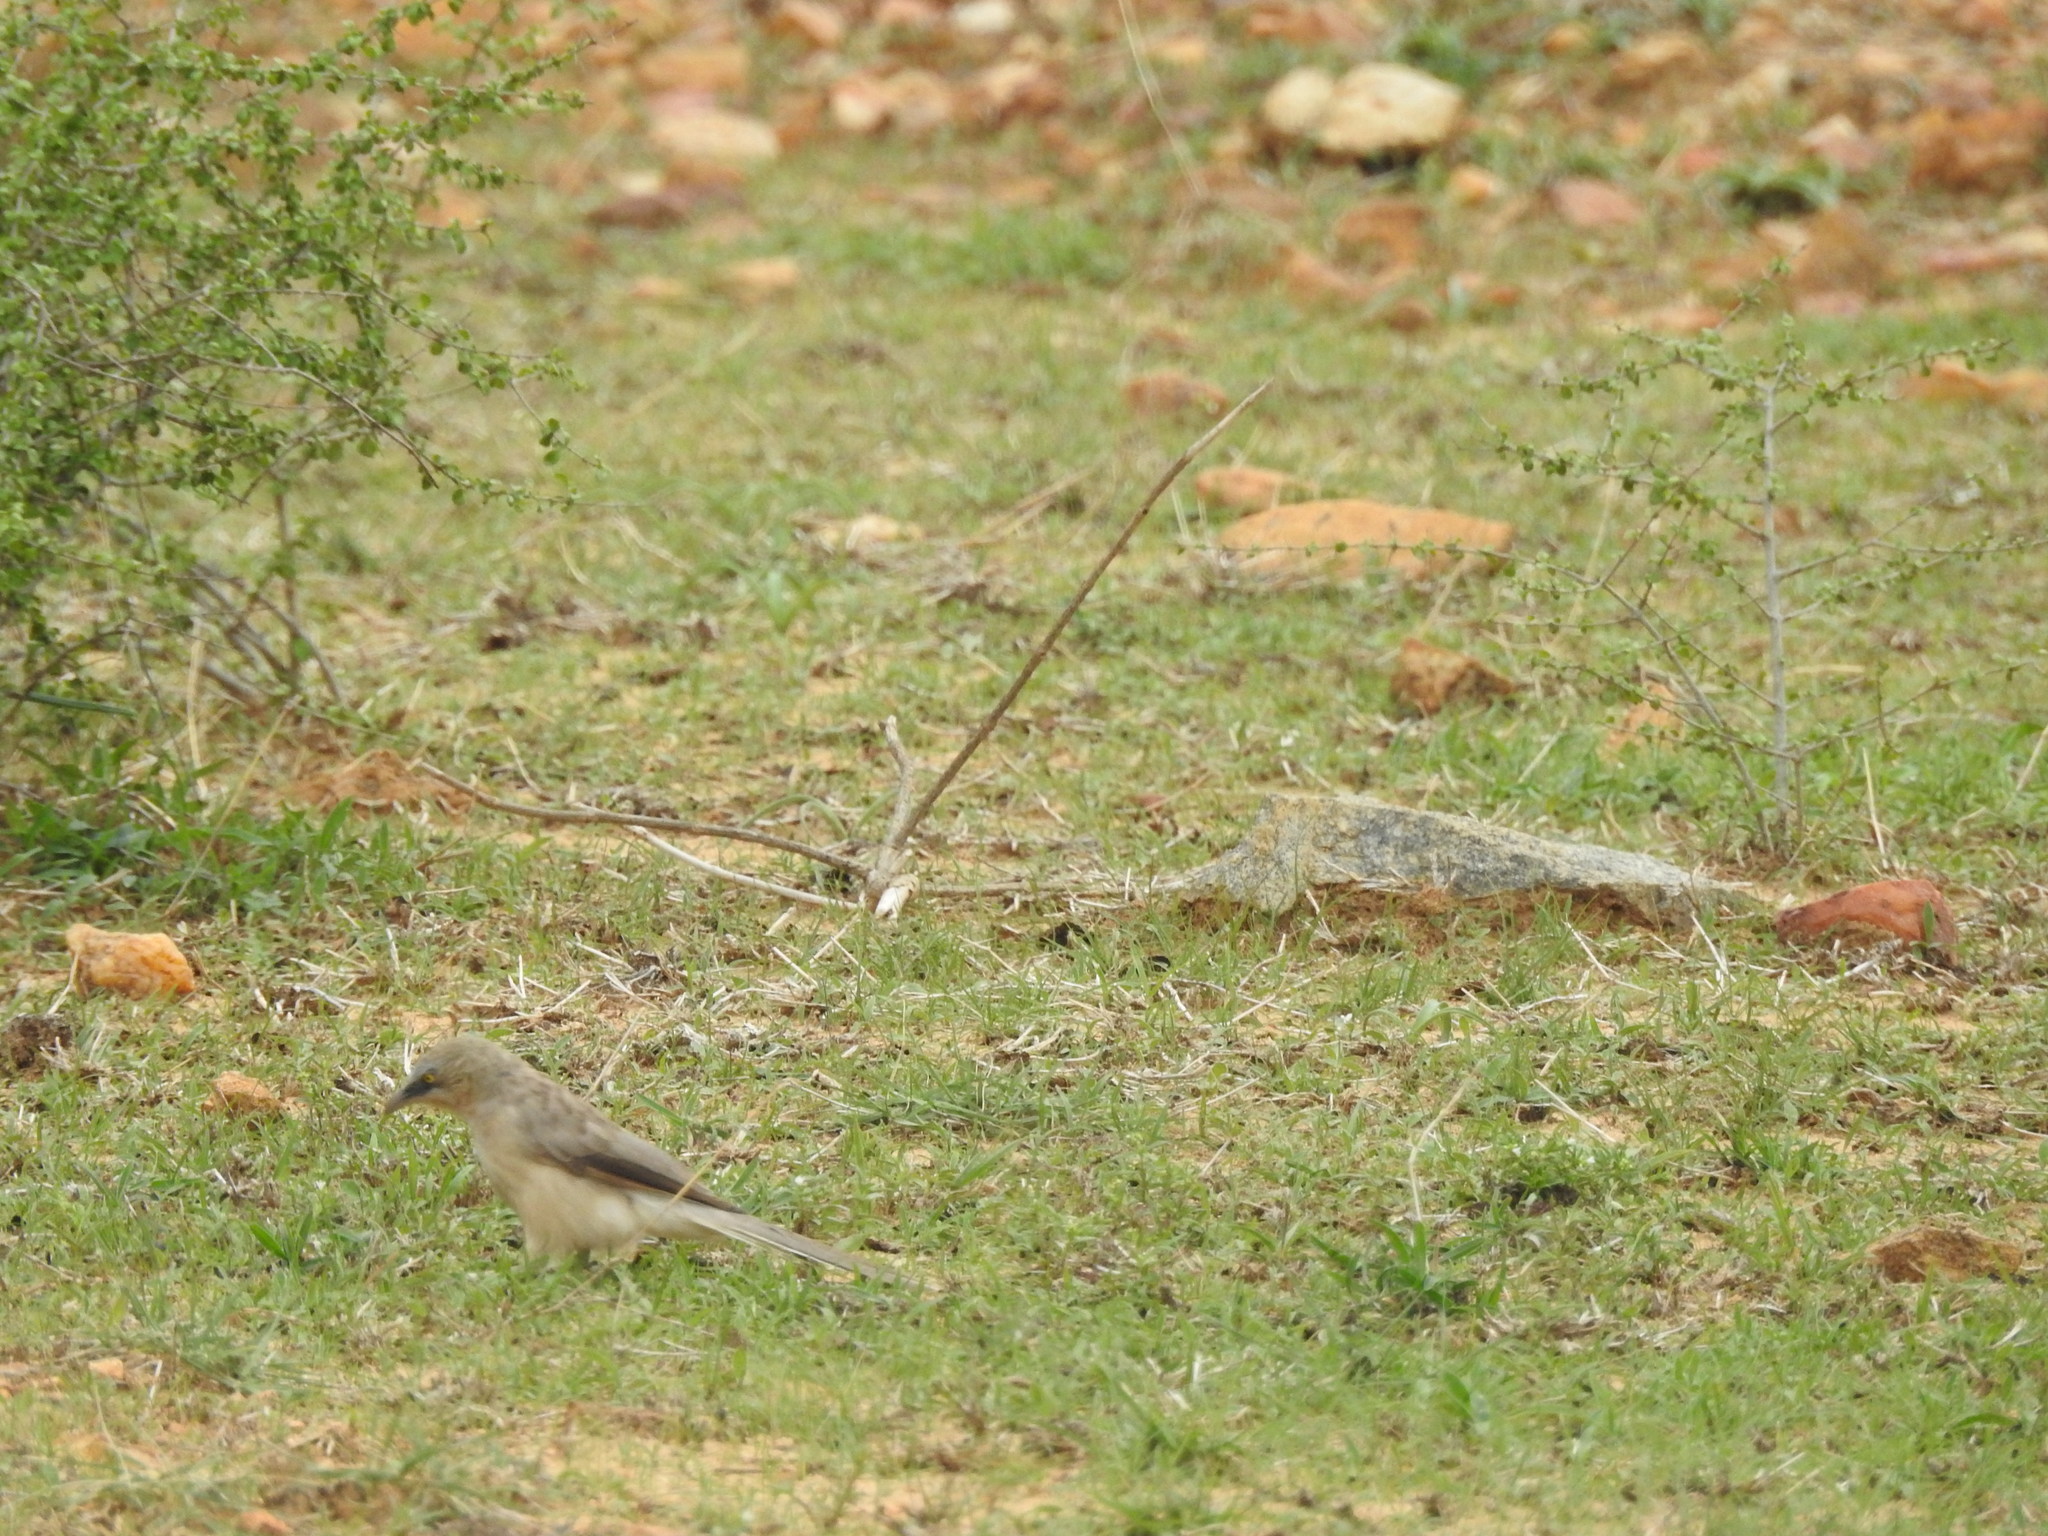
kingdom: Animalia
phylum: Chordata
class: Aves
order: Passeriformes
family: Leiothrichidae
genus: Turdoides
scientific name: Turdoides malcolmi
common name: Large grey babbler
